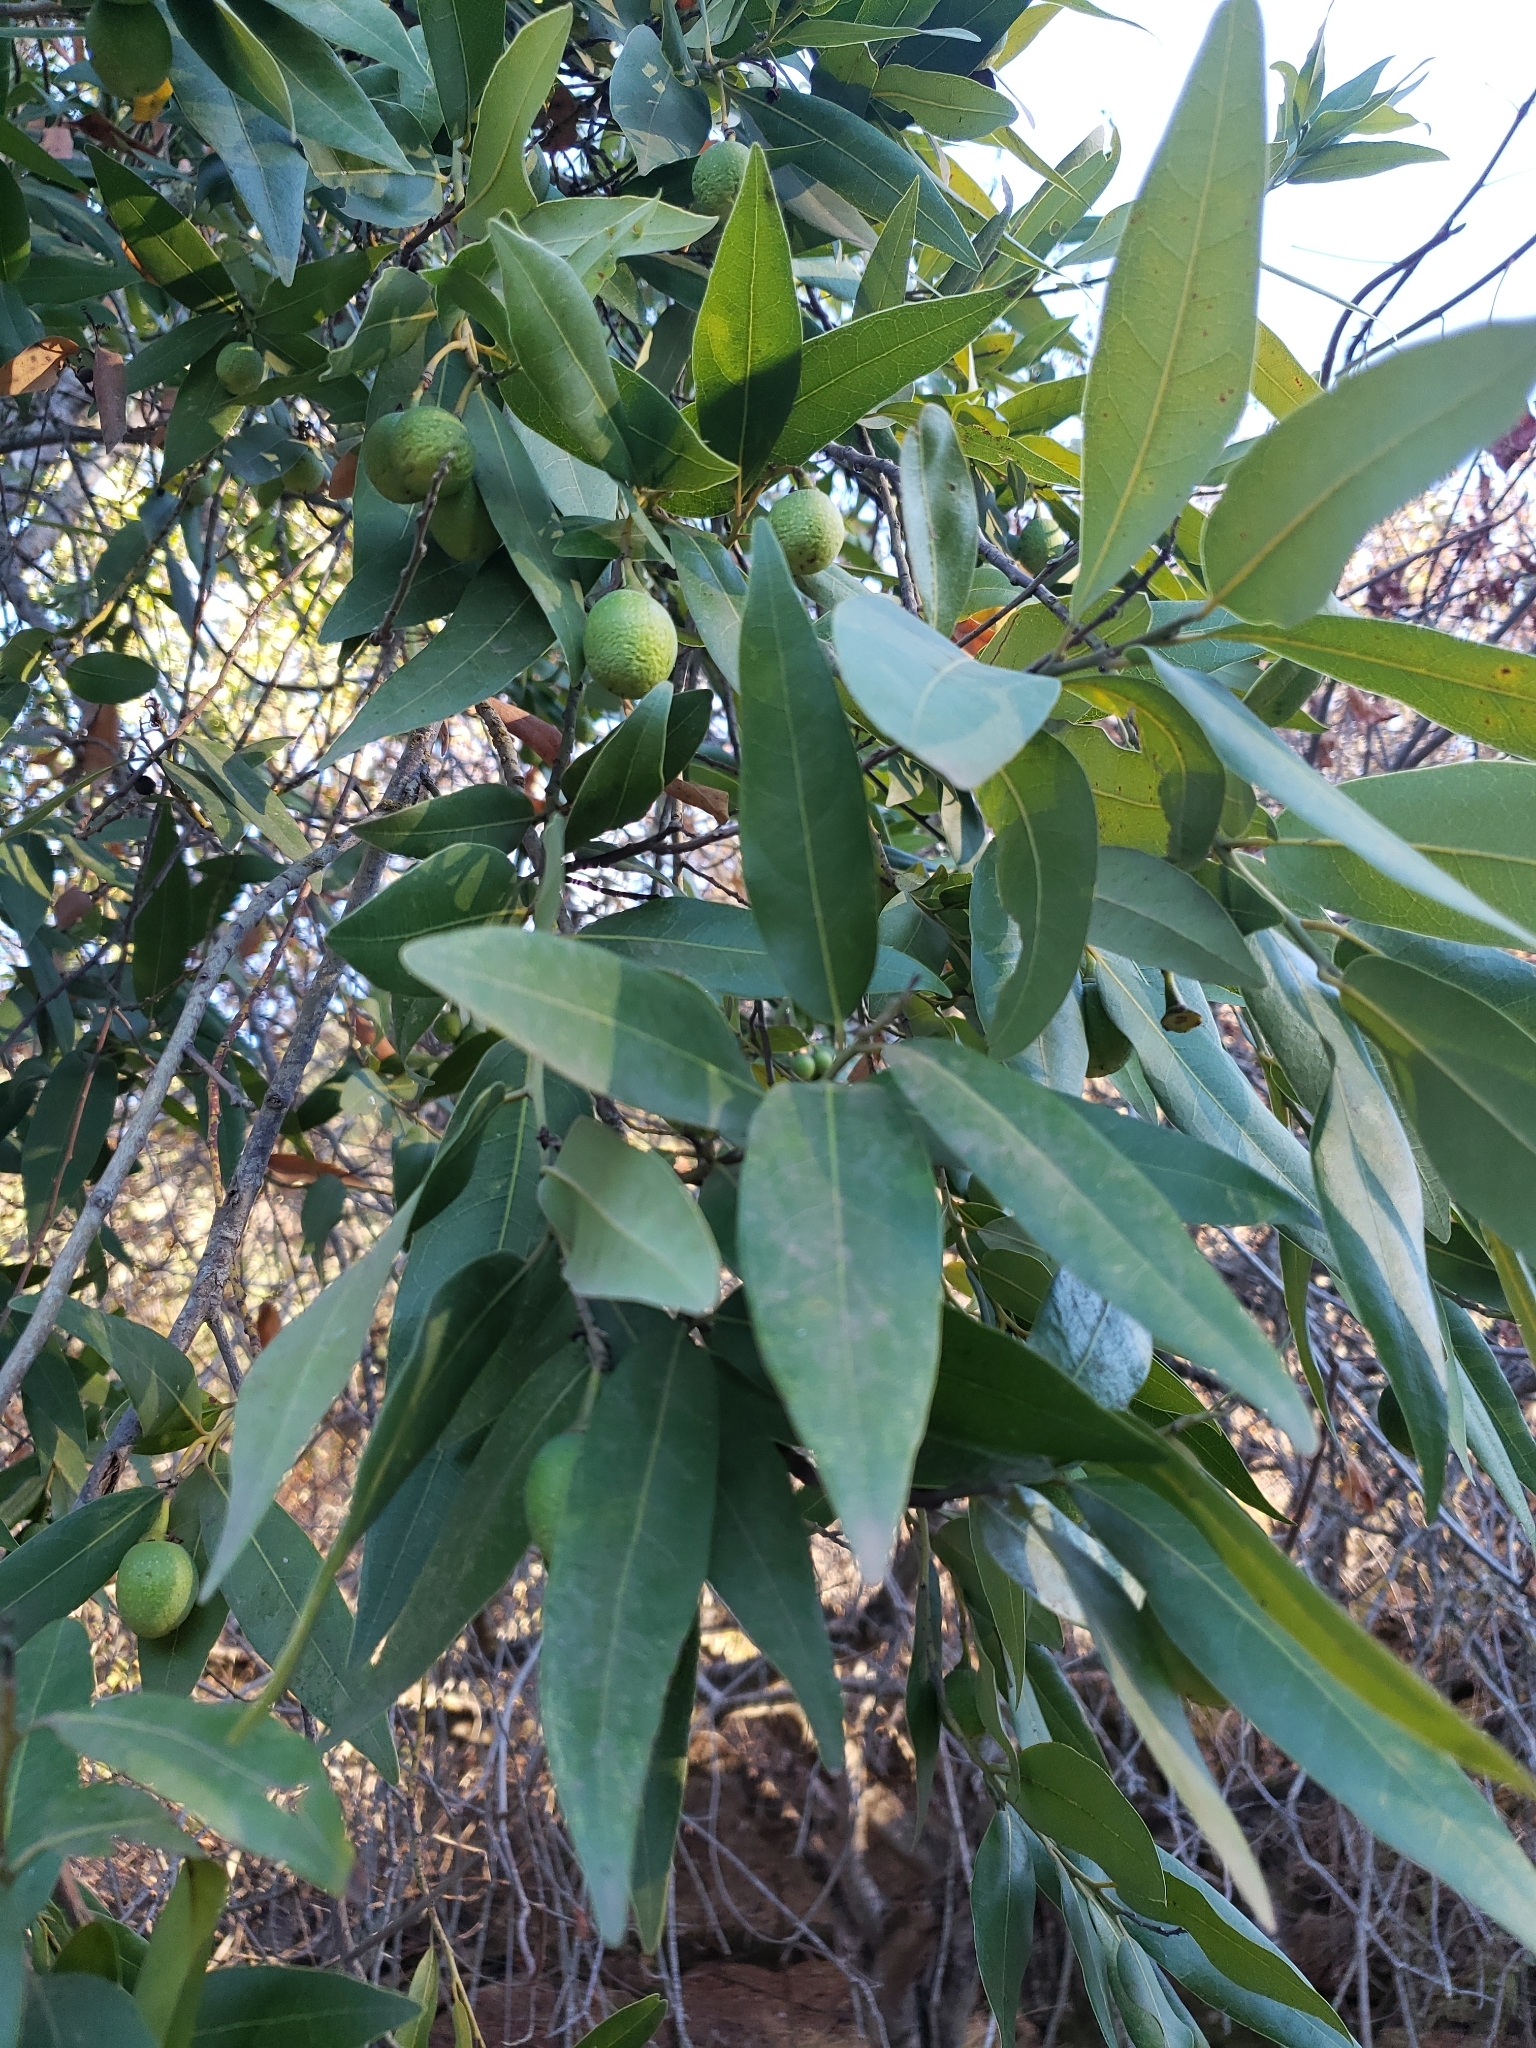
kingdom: Plantae
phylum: Tracheophyta
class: Magnoliopsida
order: Laurales
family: Lauraceae
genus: Umbellularia
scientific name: Umbellularia californica
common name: California bay
